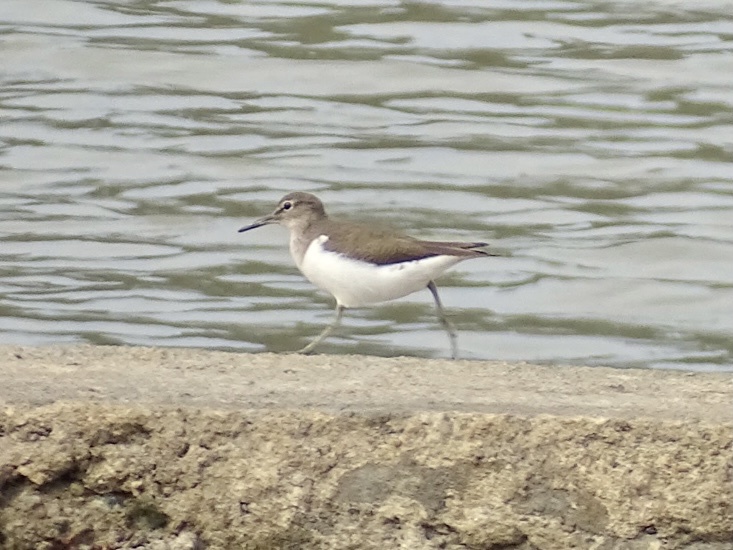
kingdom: Animalia
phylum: Chordata
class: Aves
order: Charadriiformes
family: Scolopacidae
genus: Actitis
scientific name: Actitis hypoleucos
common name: Common sandpiper
